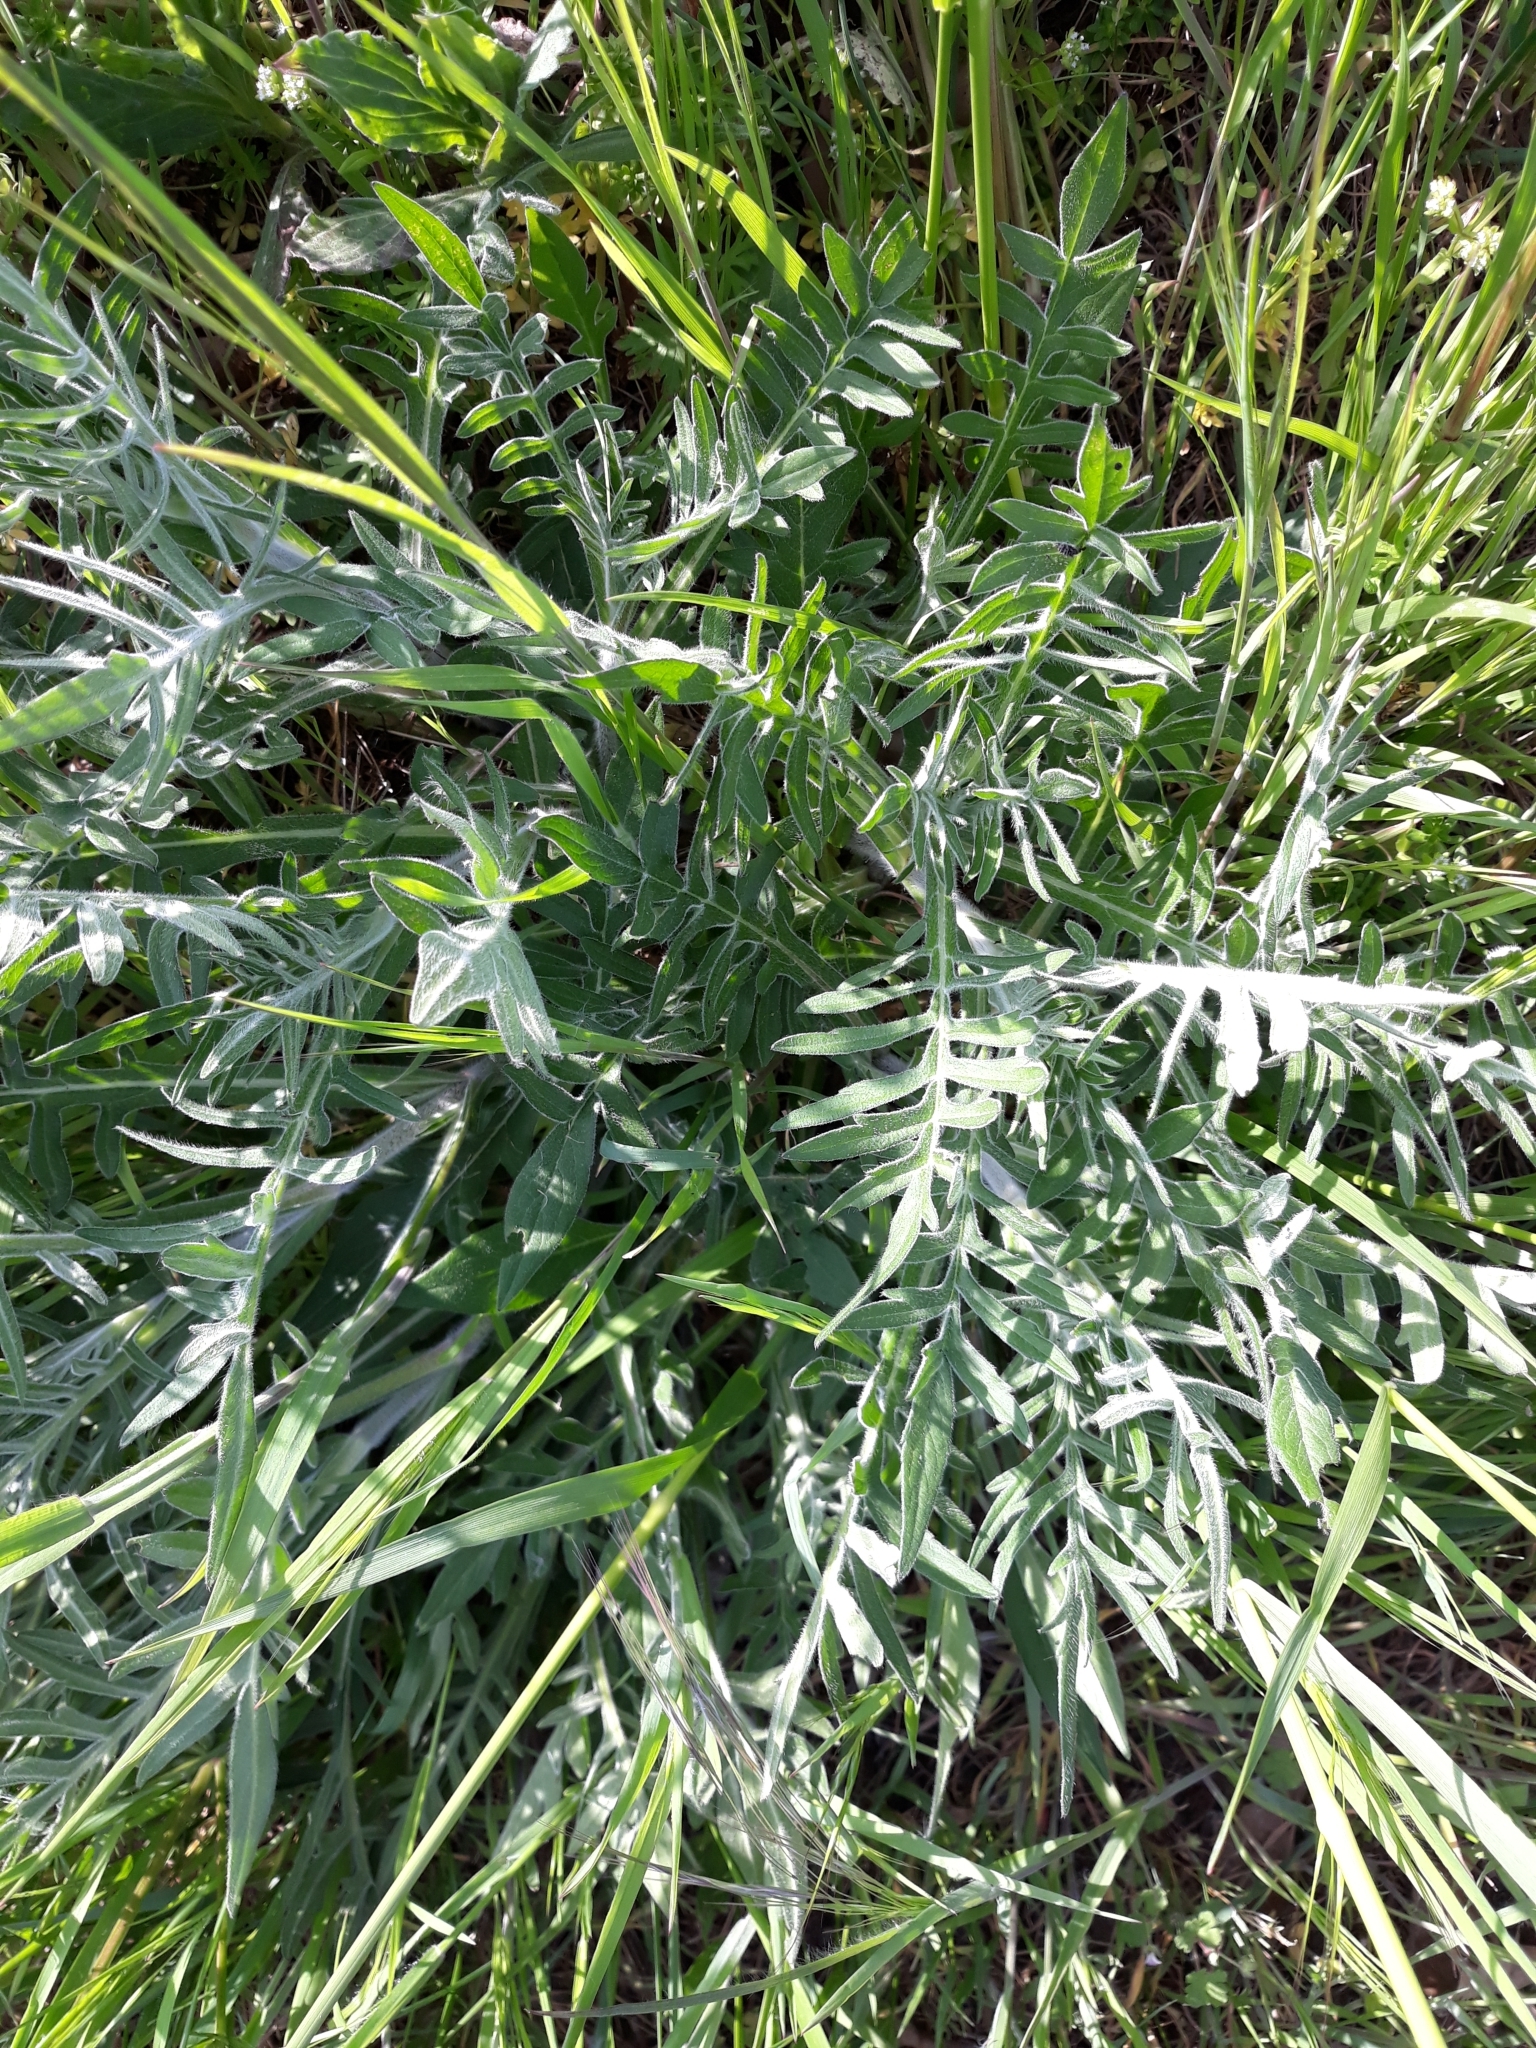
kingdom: Plantae
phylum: Tracheophyta
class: Magnoliopsida
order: Dipsacales
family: Caprifoliaceae
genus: Knautia
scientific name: Knautia arvensis
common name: Field scabiosa
